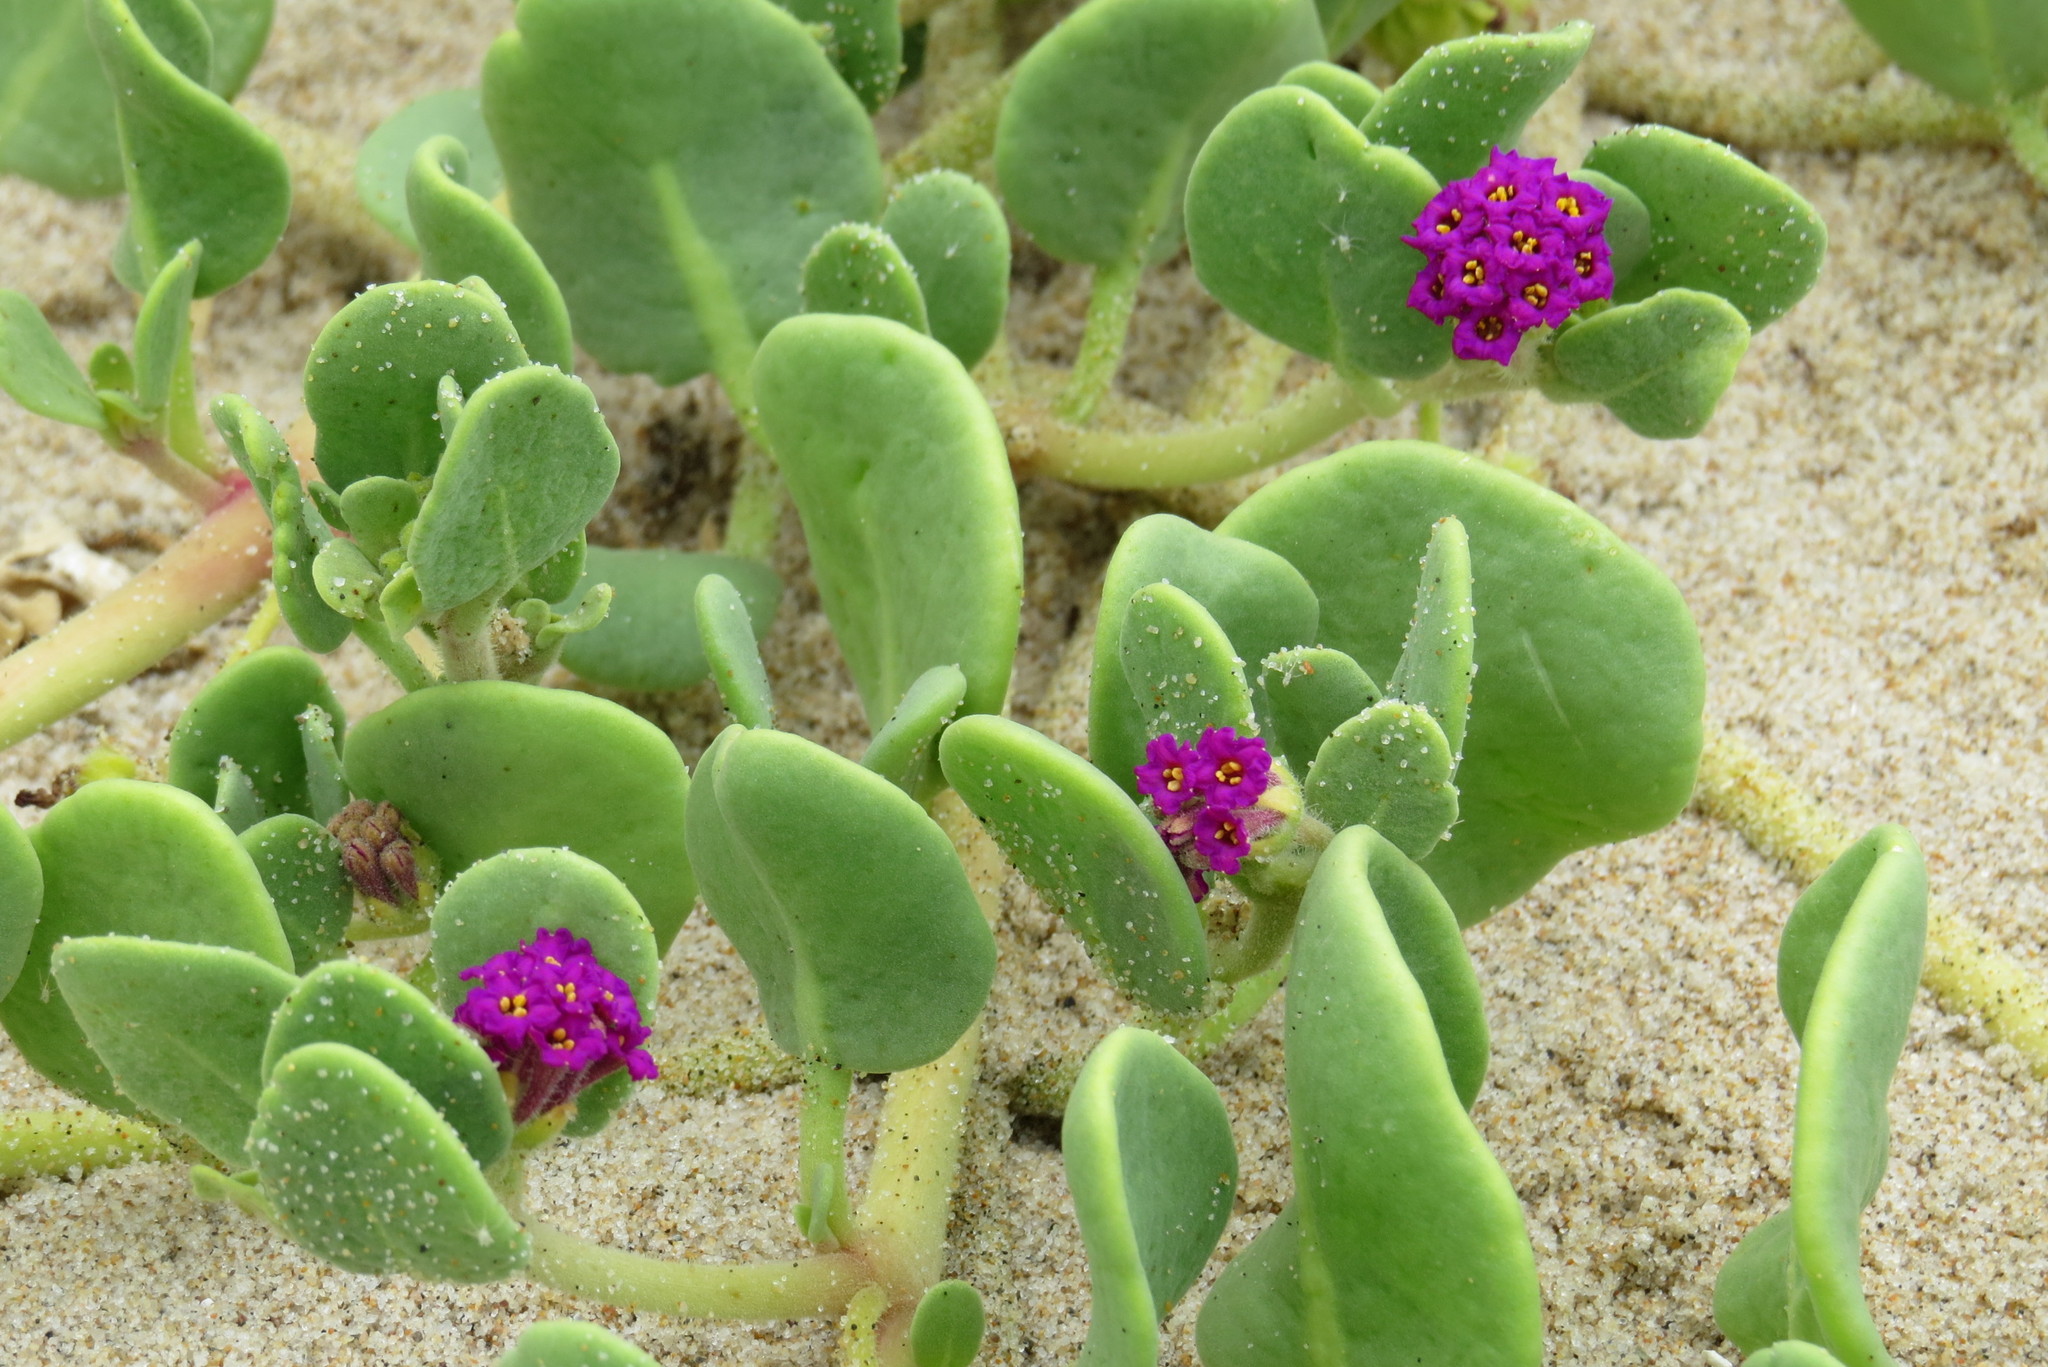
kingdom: Plantae
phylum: Tracheophyta
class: Magnoliopsida
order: Caryophyllales
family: Nyctaginaceae
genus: Abronia
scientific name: Abronia maritima
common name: Red sand-verbena
